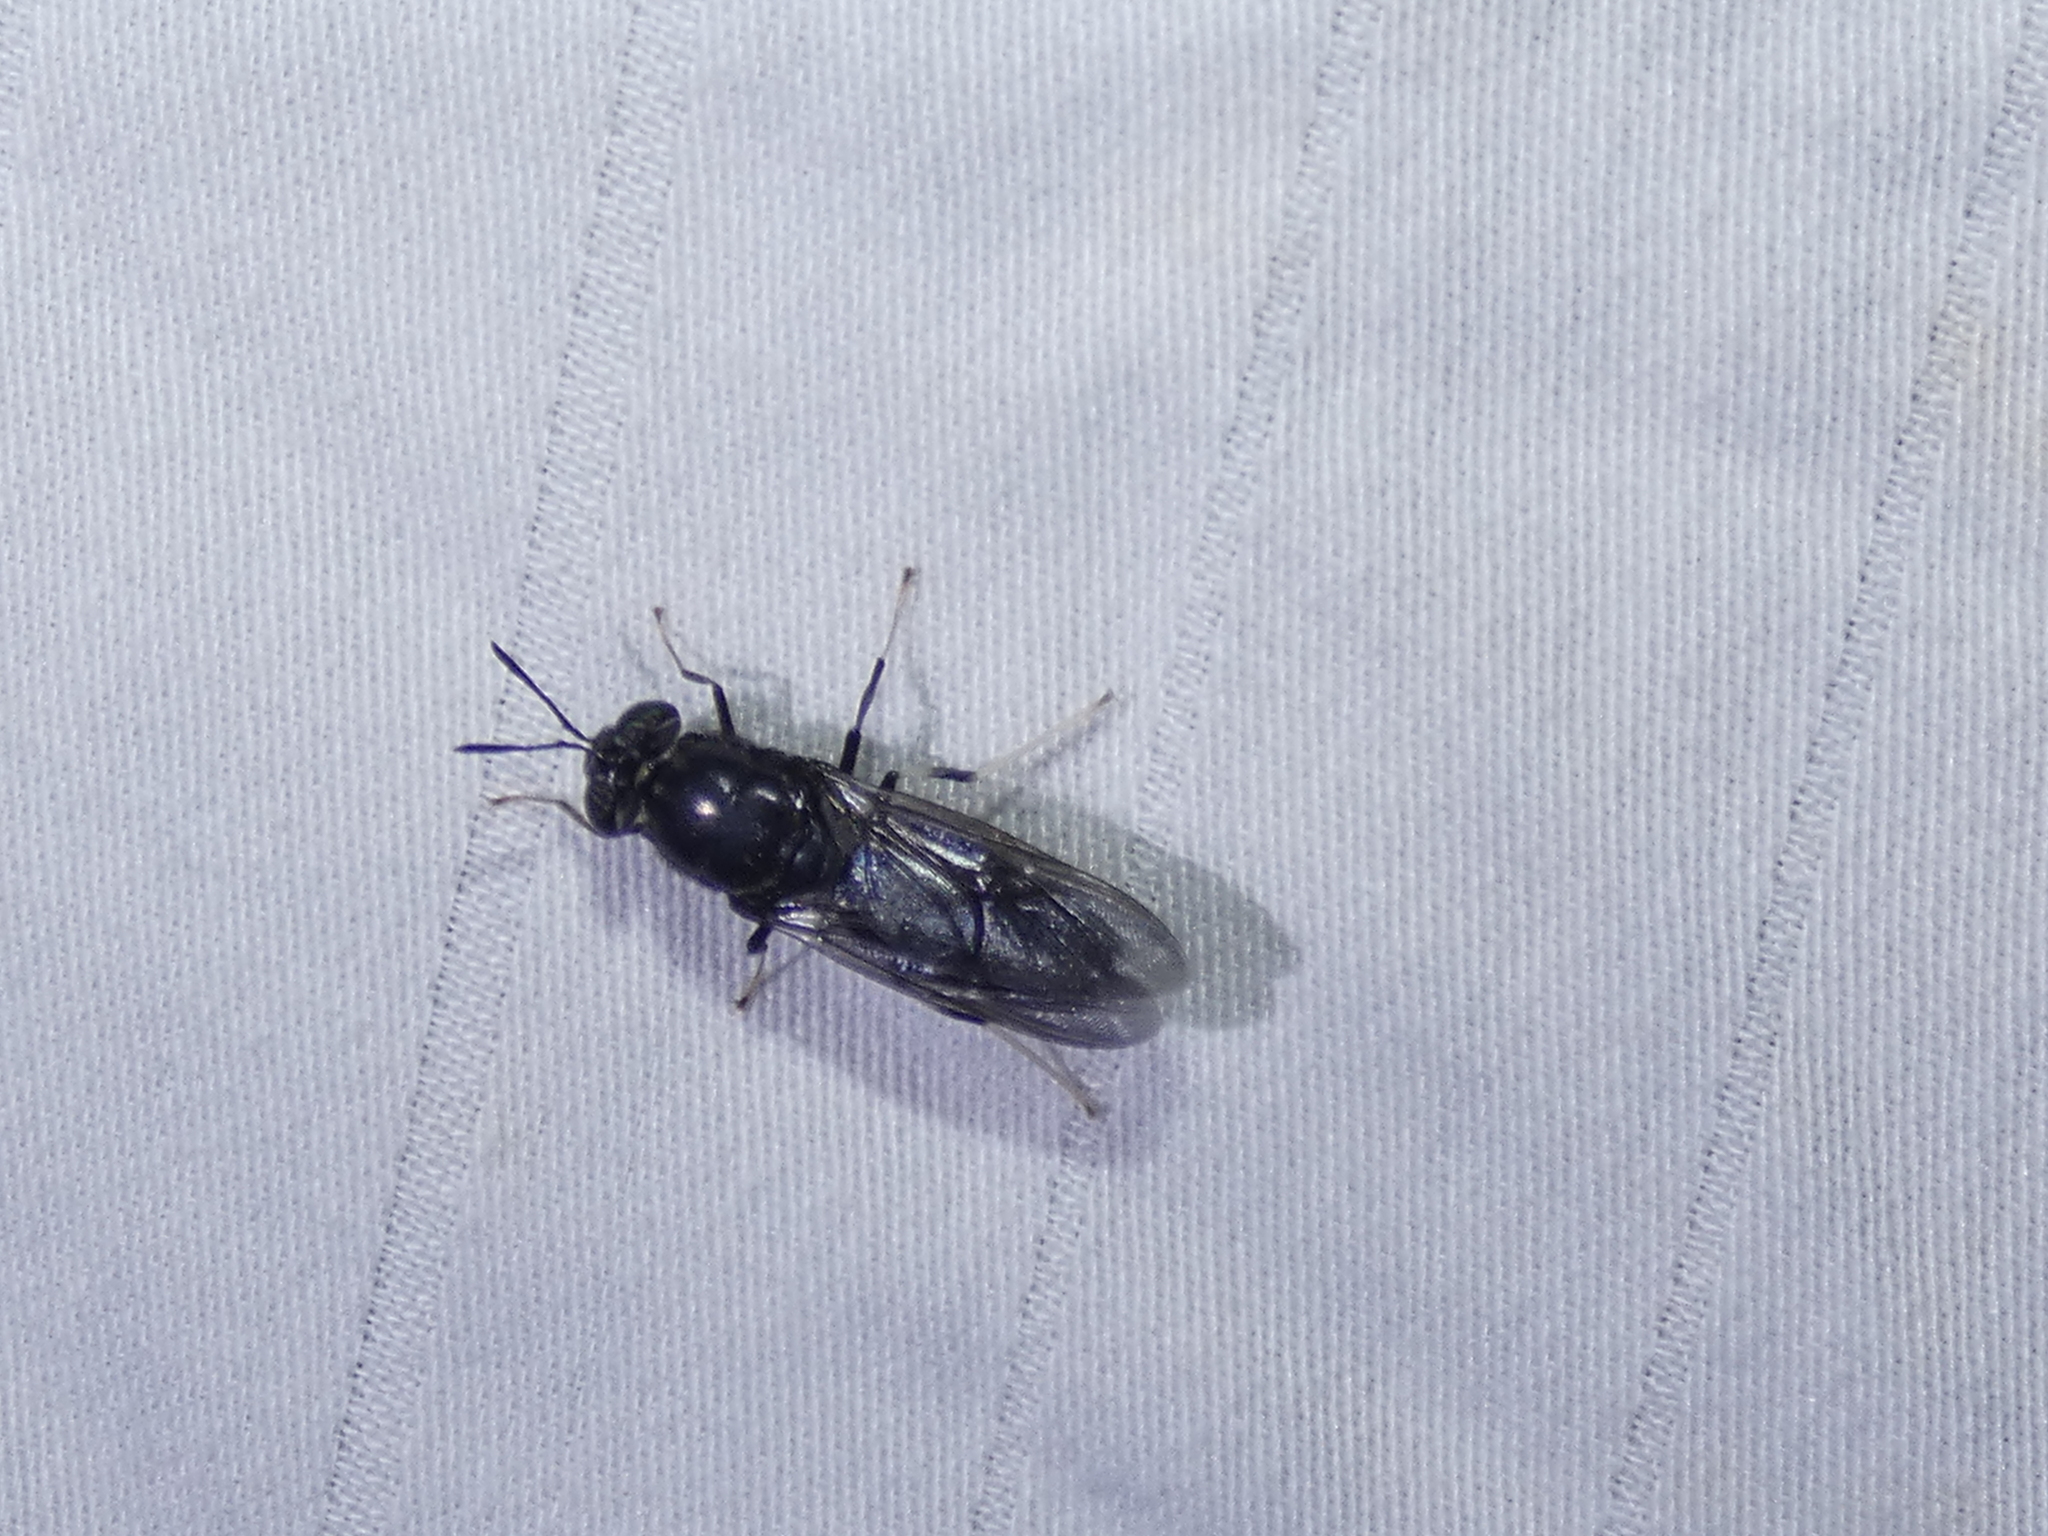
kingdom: Animalia
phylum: Arthropoda
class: Insecta
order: Diptera
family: Stratiomyidae
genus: Hermetia
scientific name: Hermetia illucens
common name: Black soldier fly
